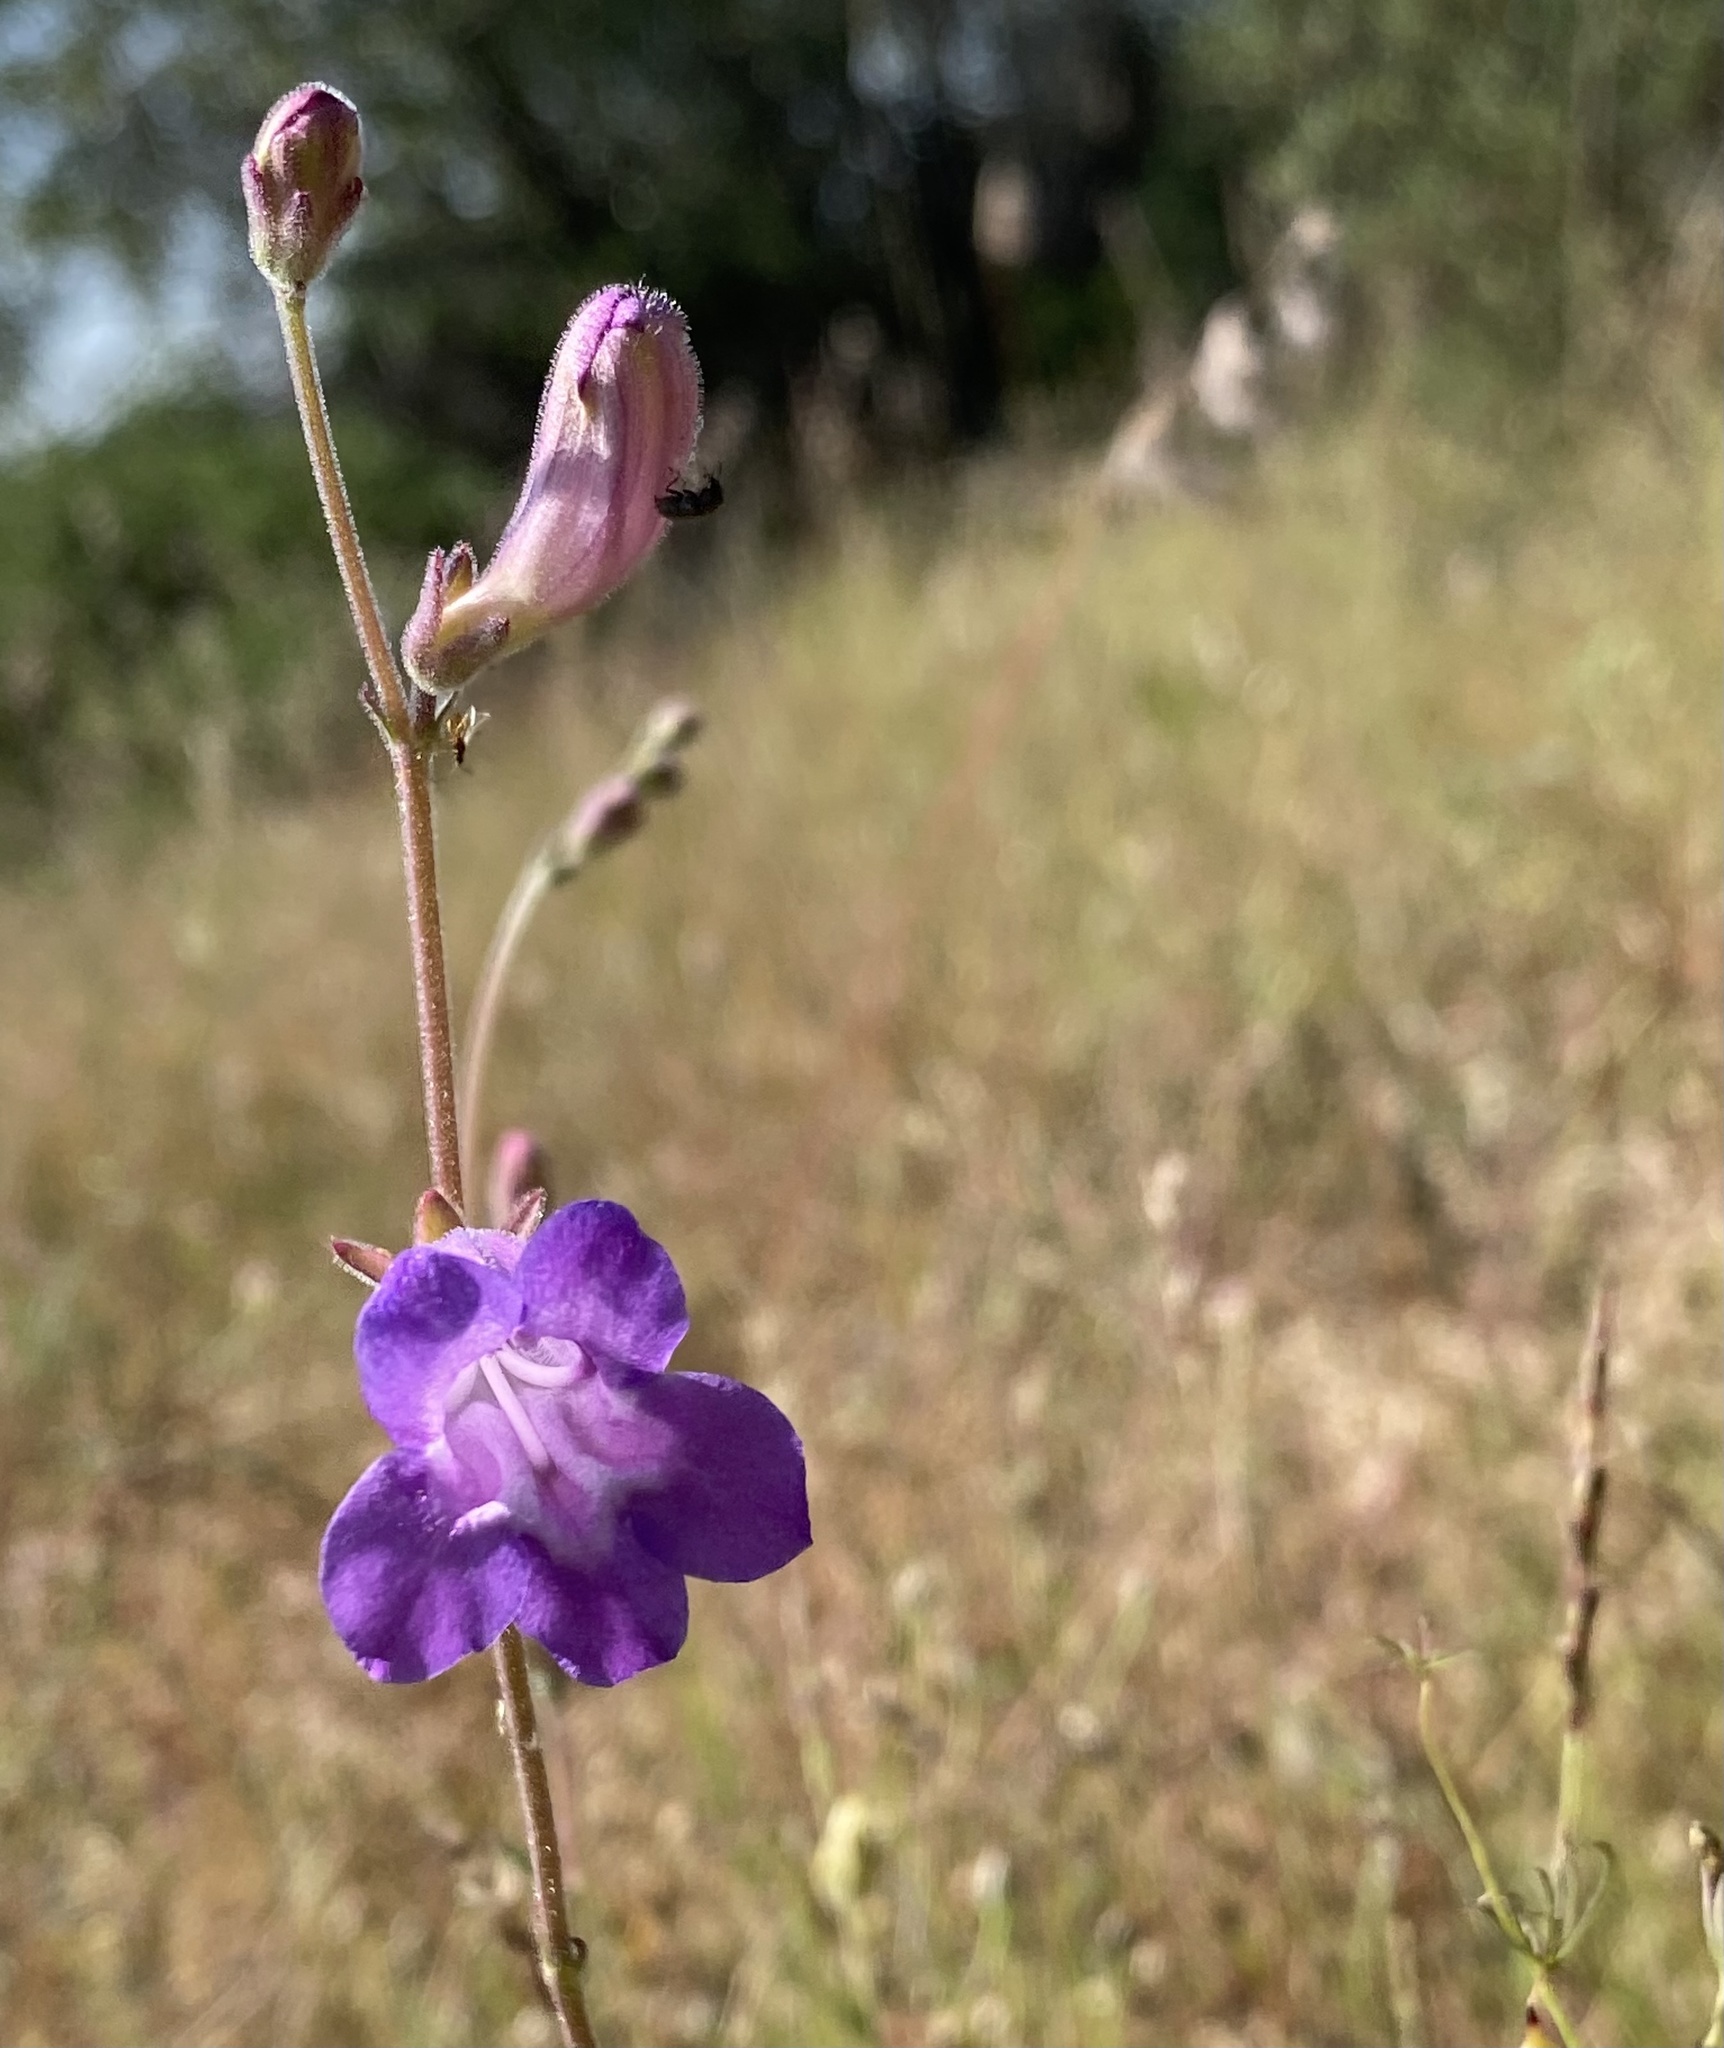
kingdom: Plantae
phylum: Tracheophyta
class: Magnoliopsida
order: Lamiales
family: Plantaginaceae
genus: Penstemon
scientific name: Penstemon dasyphyllus
